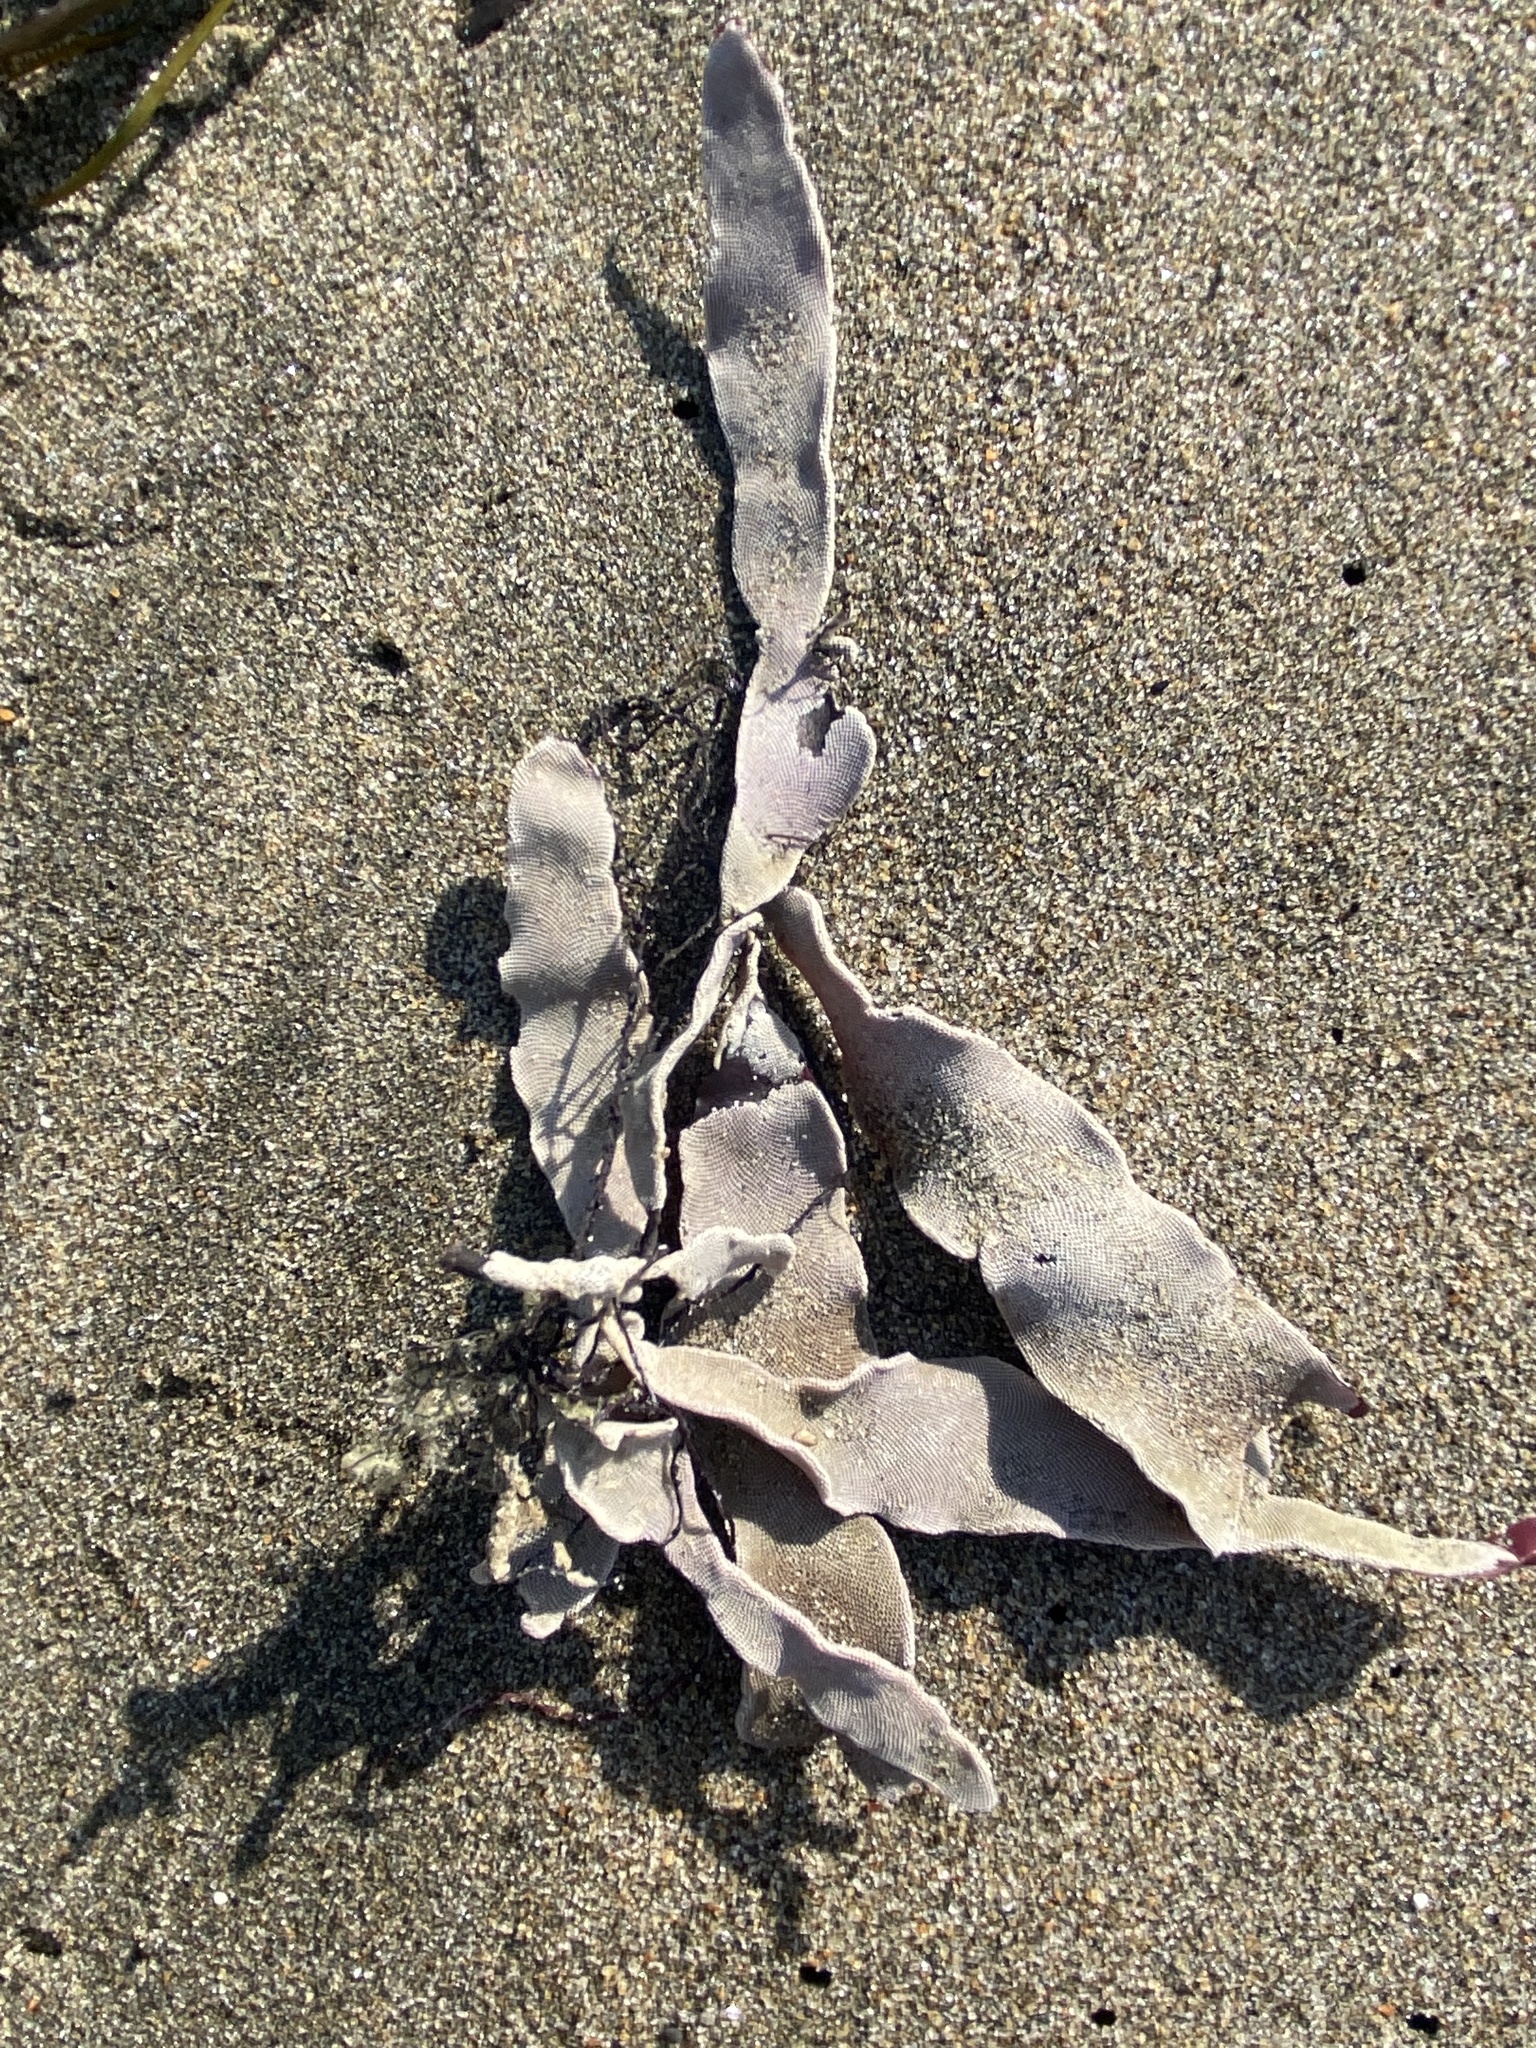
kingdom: Animalia
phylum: Bryozoa
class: Gymnolaemata
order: Cheilostomatida
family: Membraniporidae
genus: Jellyella
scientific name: Jellyella tuberculata
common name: Sargassum bryozoan
